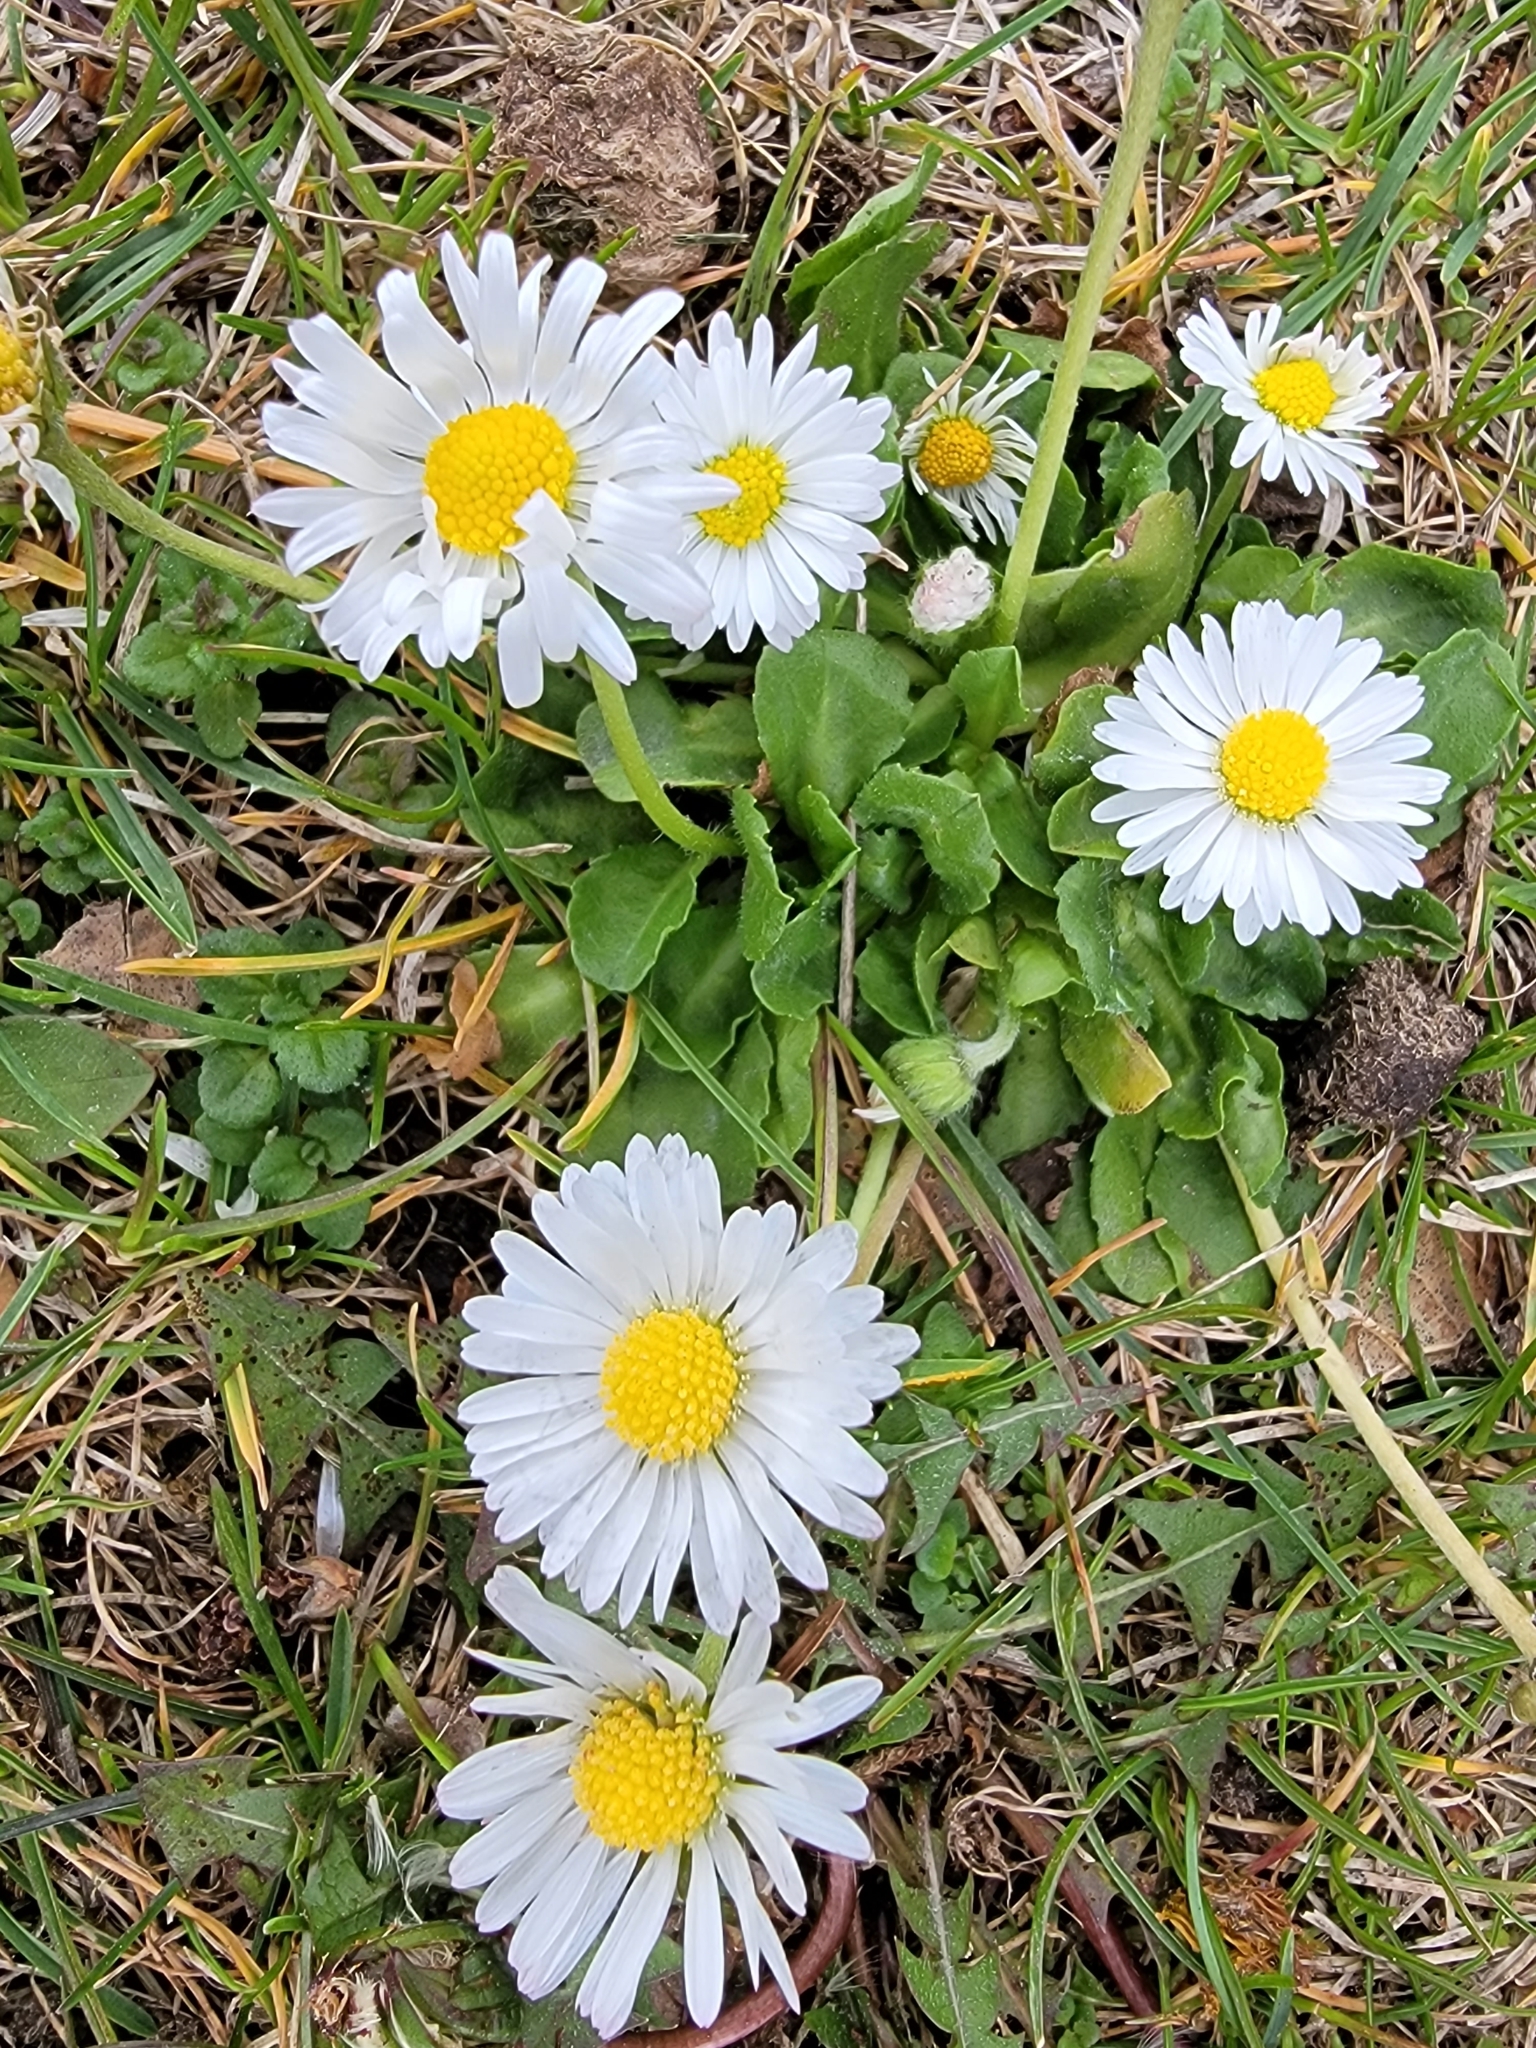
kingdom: Plantae
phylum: Tracheophyta
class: Magnoliopsida
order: Asterales
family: Asteraceae
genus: Bellis
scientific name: Bellis perennis
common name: Lawndaisy
